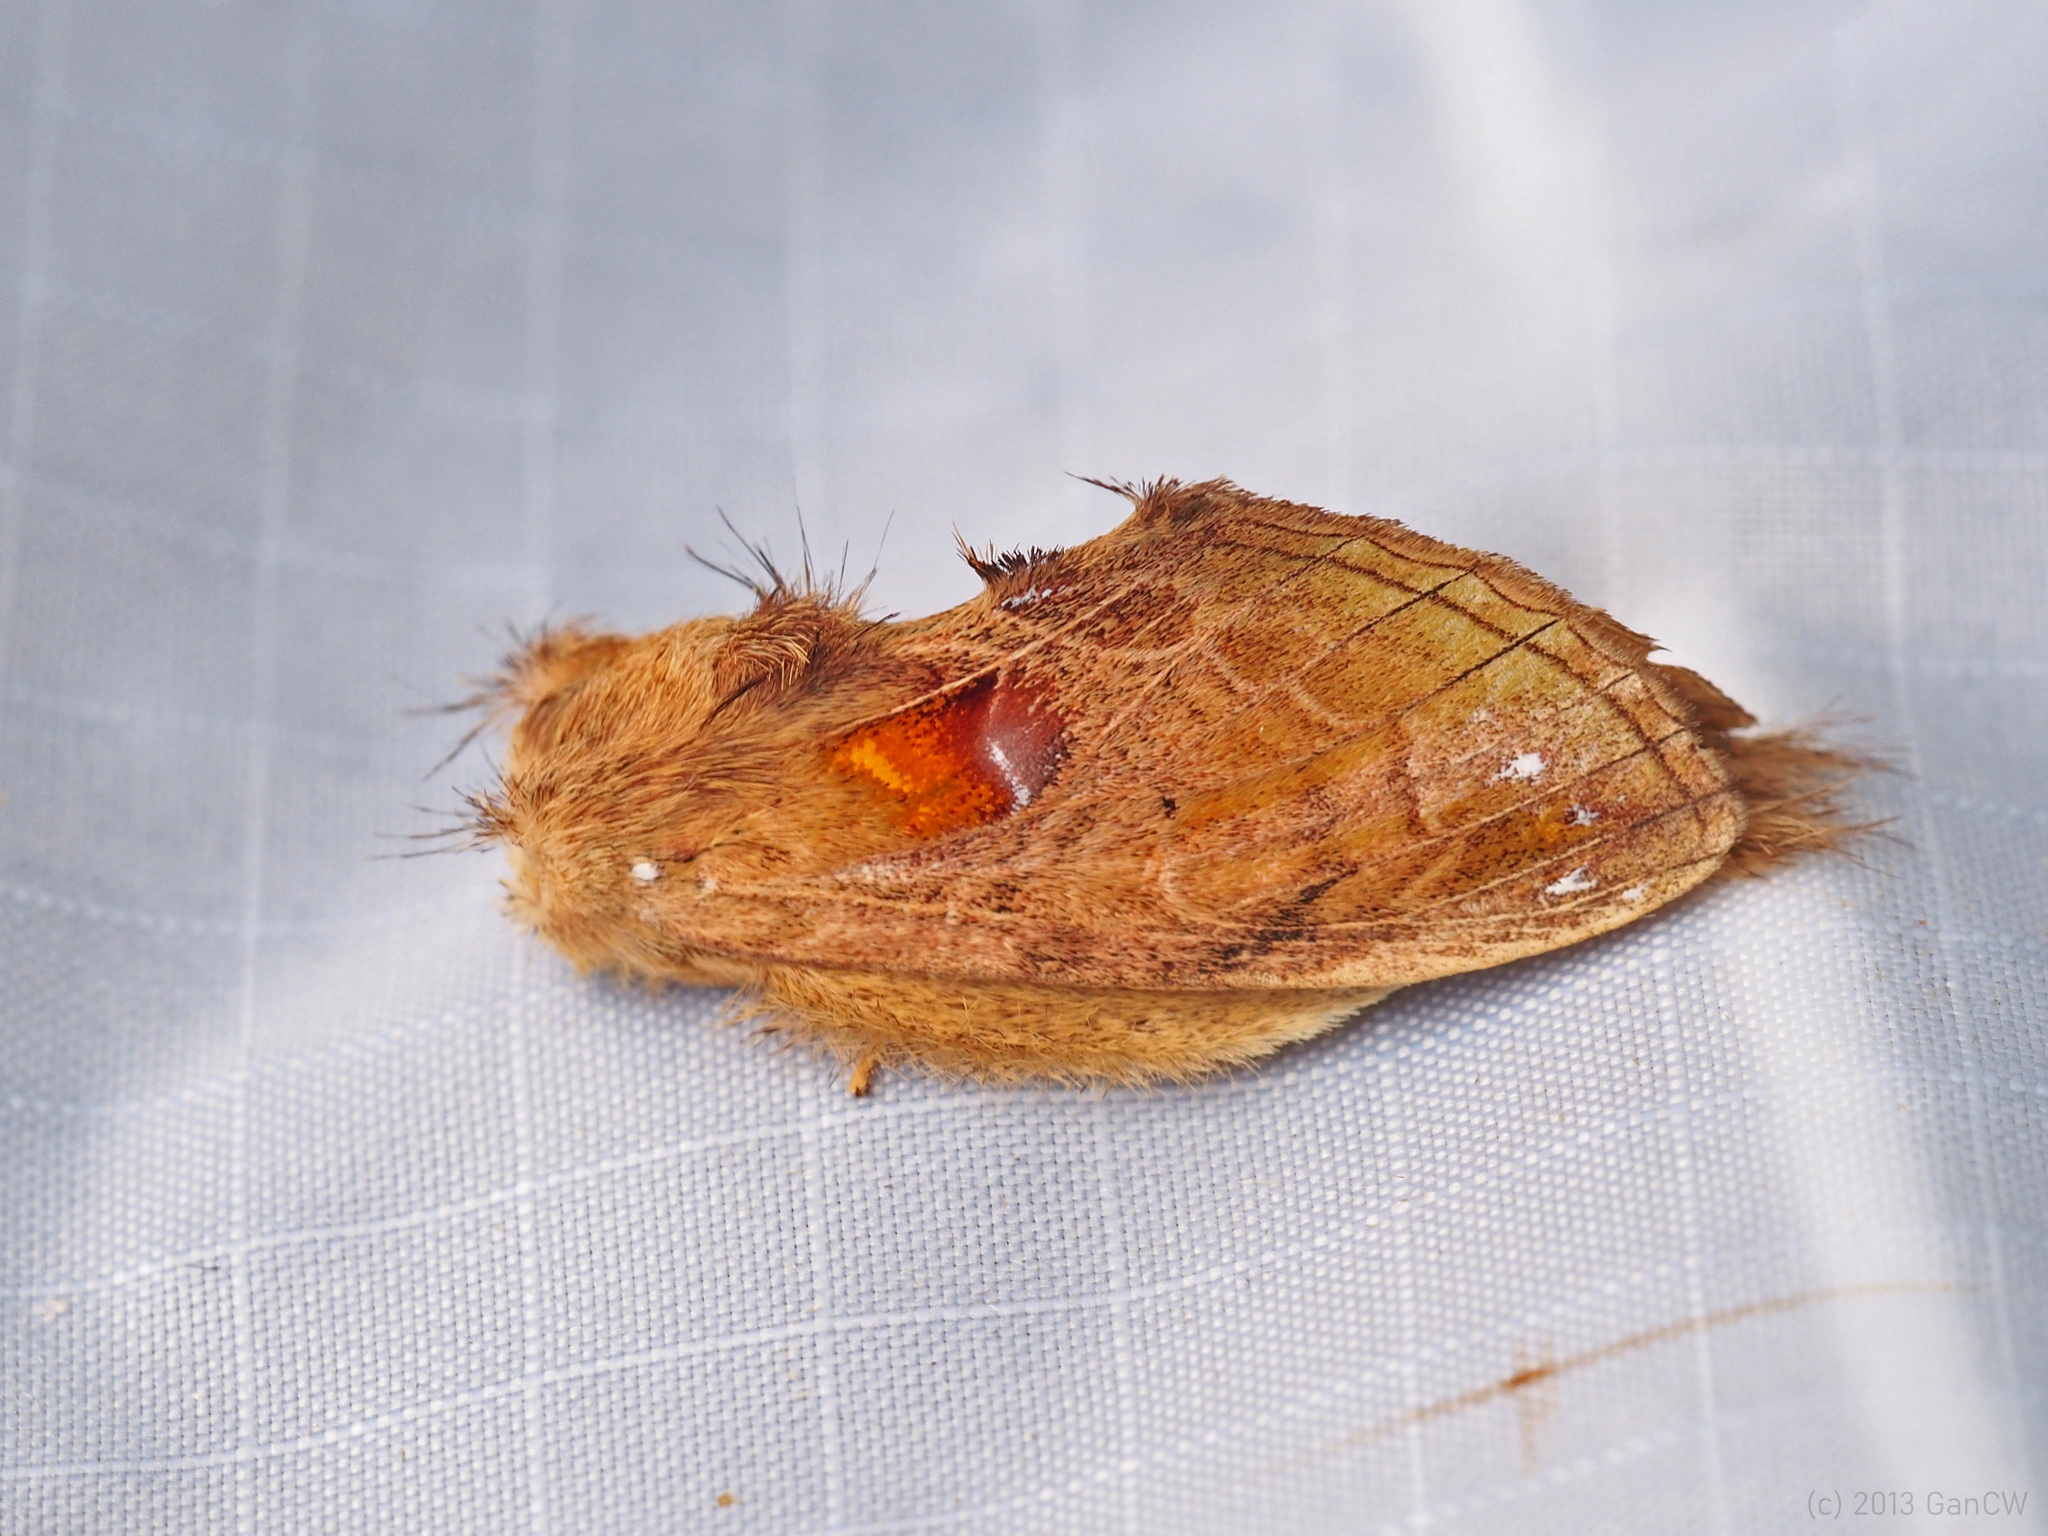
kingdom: Animalia
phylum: Arthropoda
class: Insecta
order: Lepidoptera
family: Notodontidae
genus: Rodneya
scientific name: Rodneya caudata
